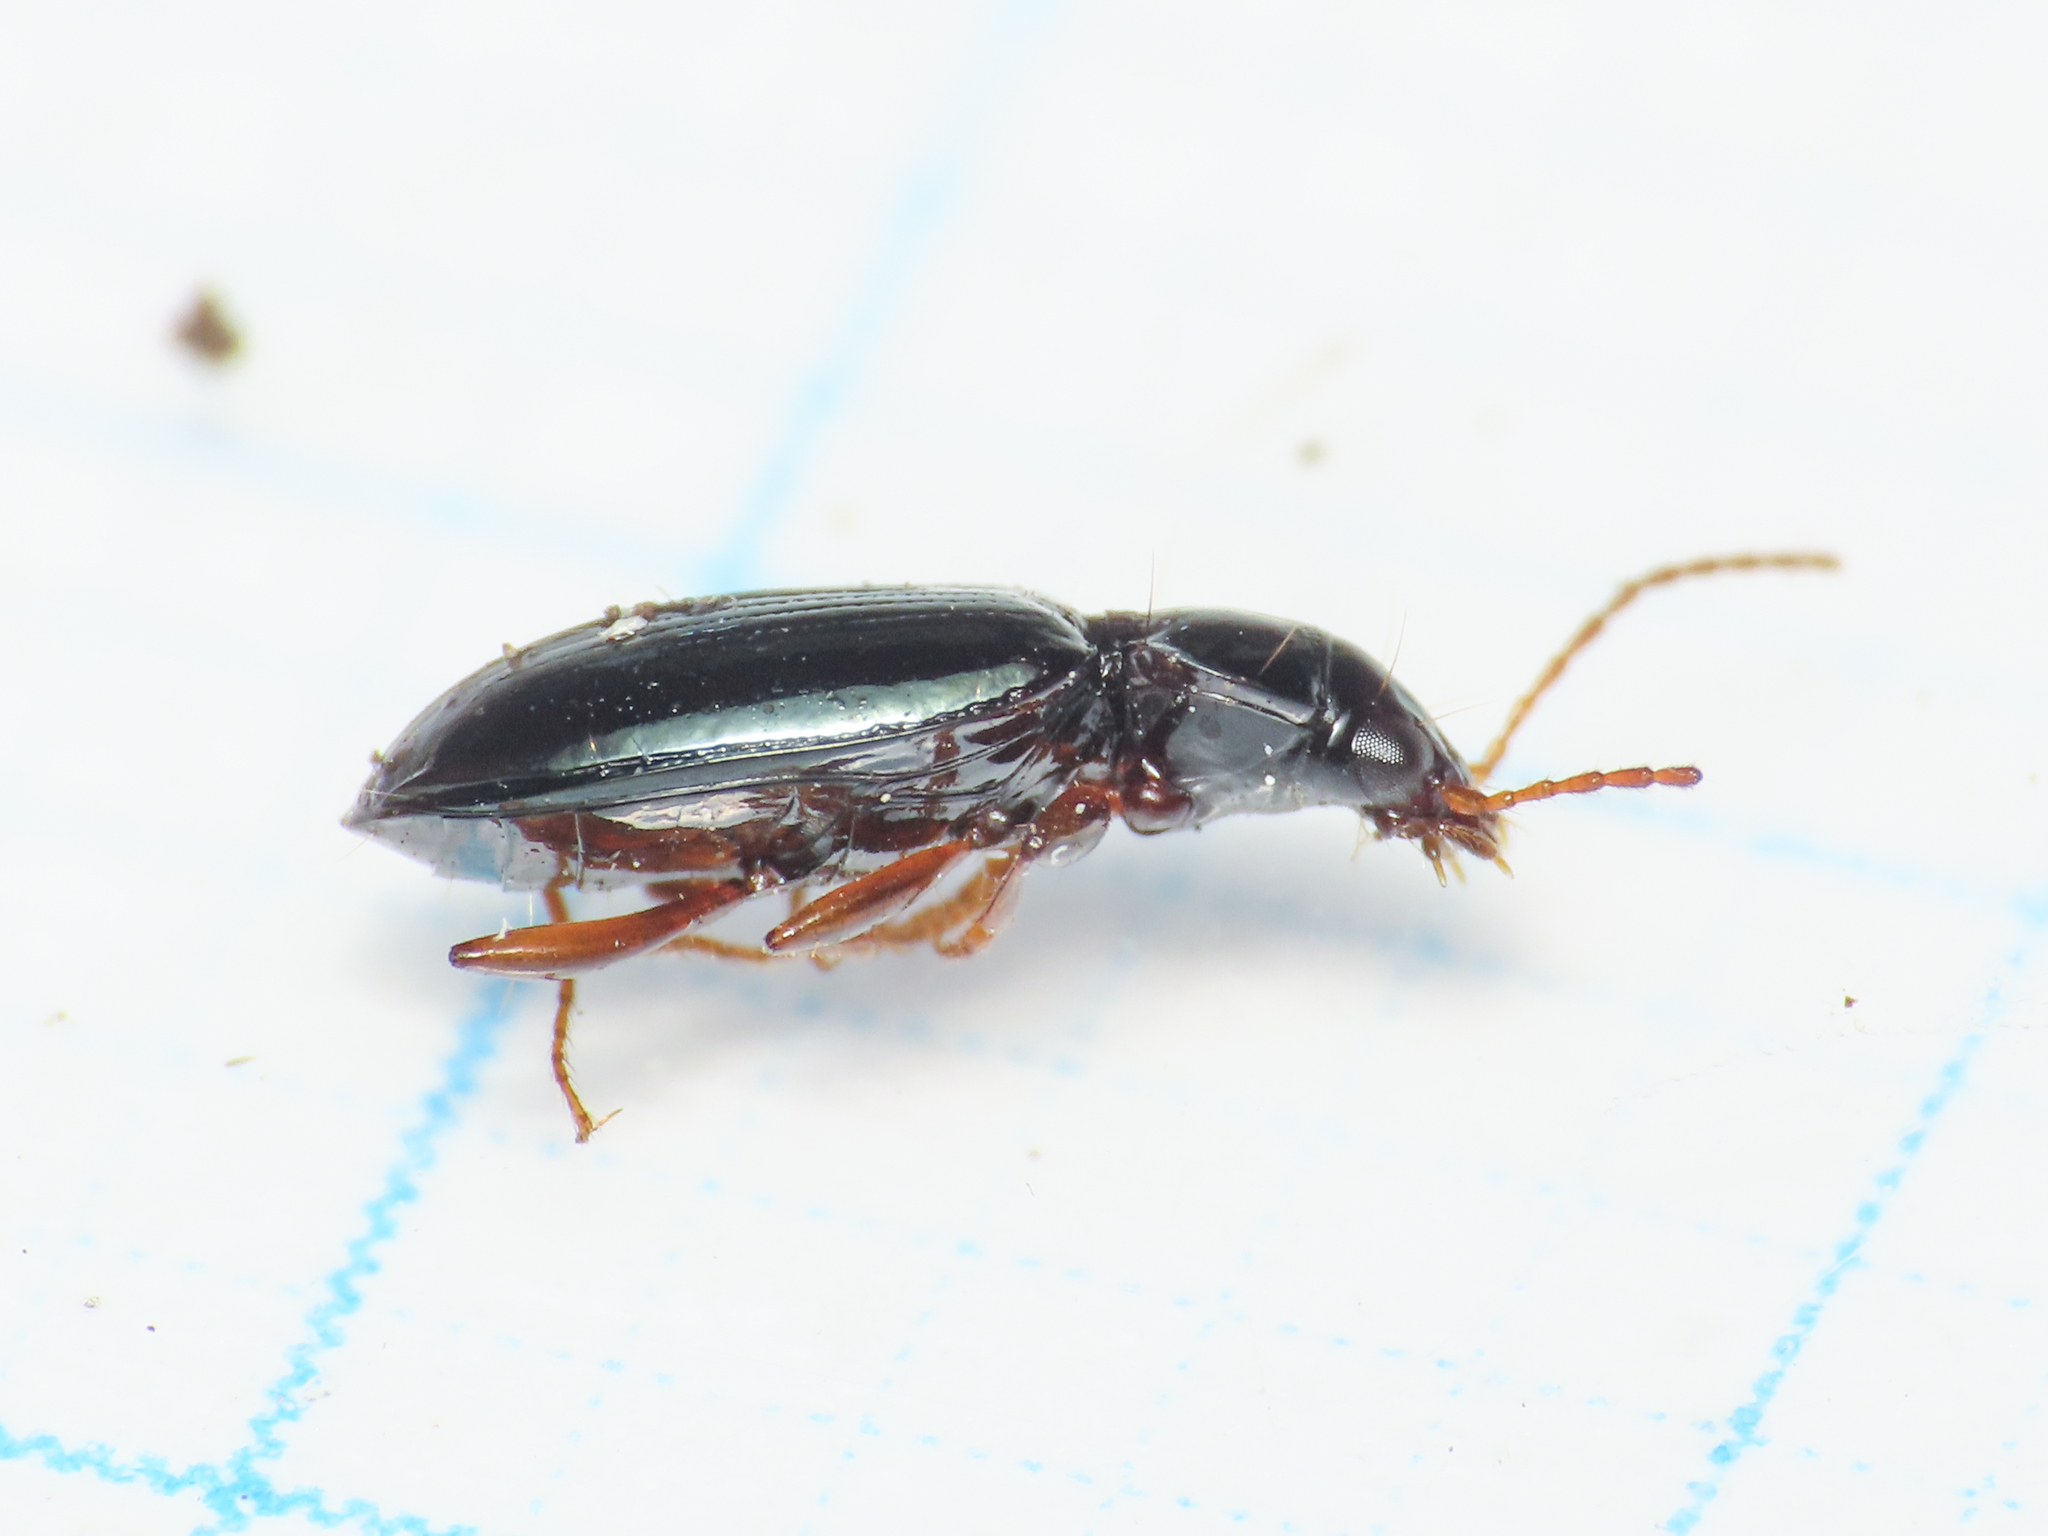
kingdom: Animalia
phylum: Arthropoda
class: Insecta
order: Coleoptera
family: Carabidae
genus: Ocys
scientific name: Ocys quinquestriatus
